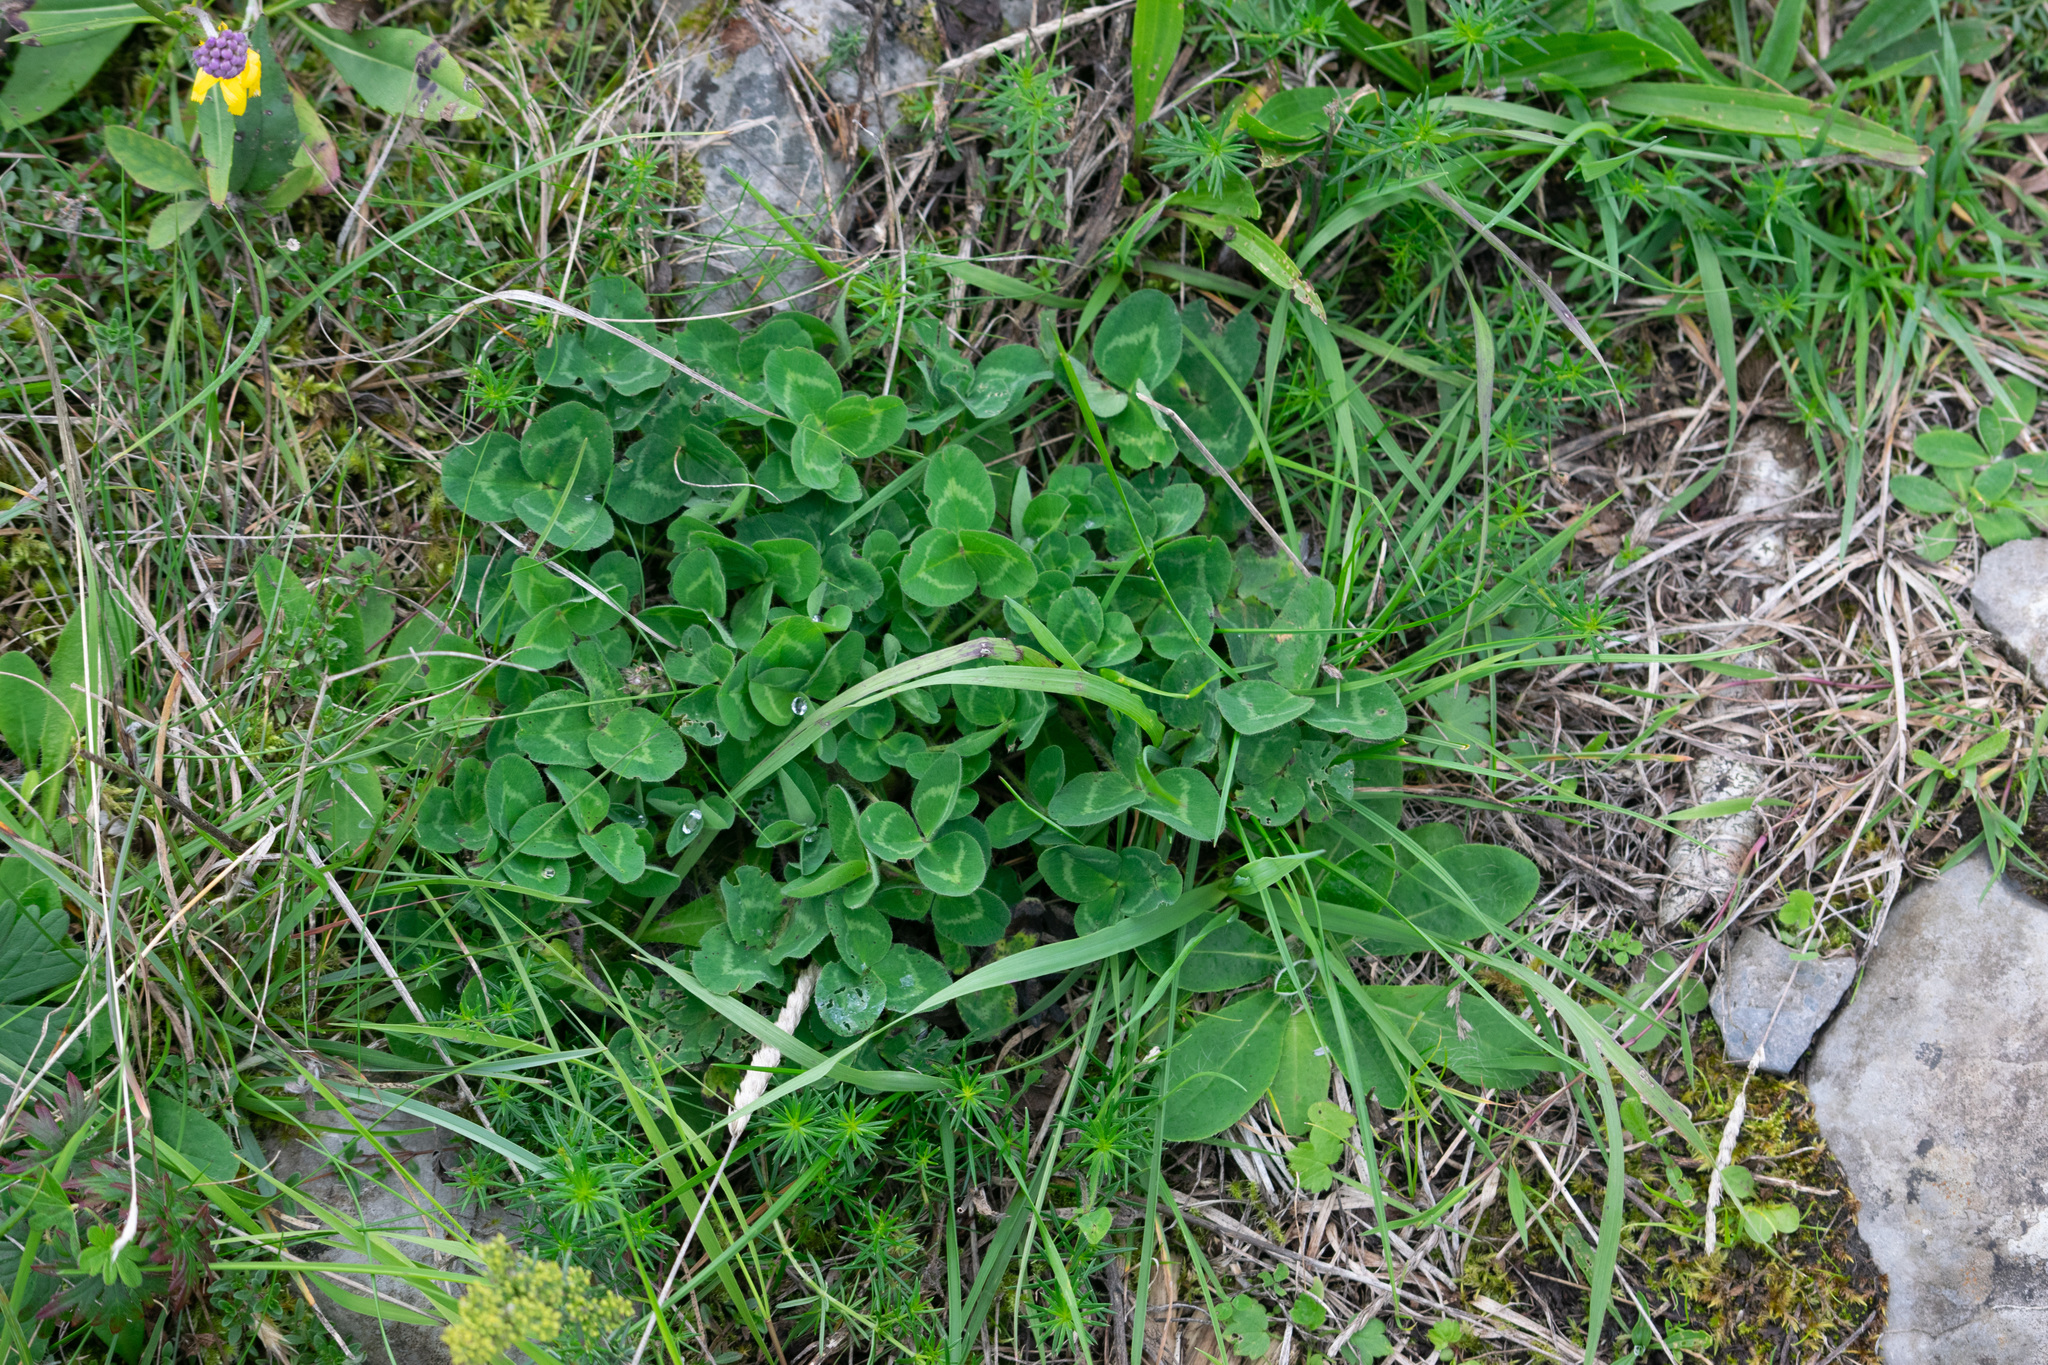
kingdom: Plantae
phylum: Tracheophyta
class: Magnoliopsida
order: Fabales
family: Fabaceae
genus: Trifolium
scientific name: Trifolium pratense
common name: Red clover
